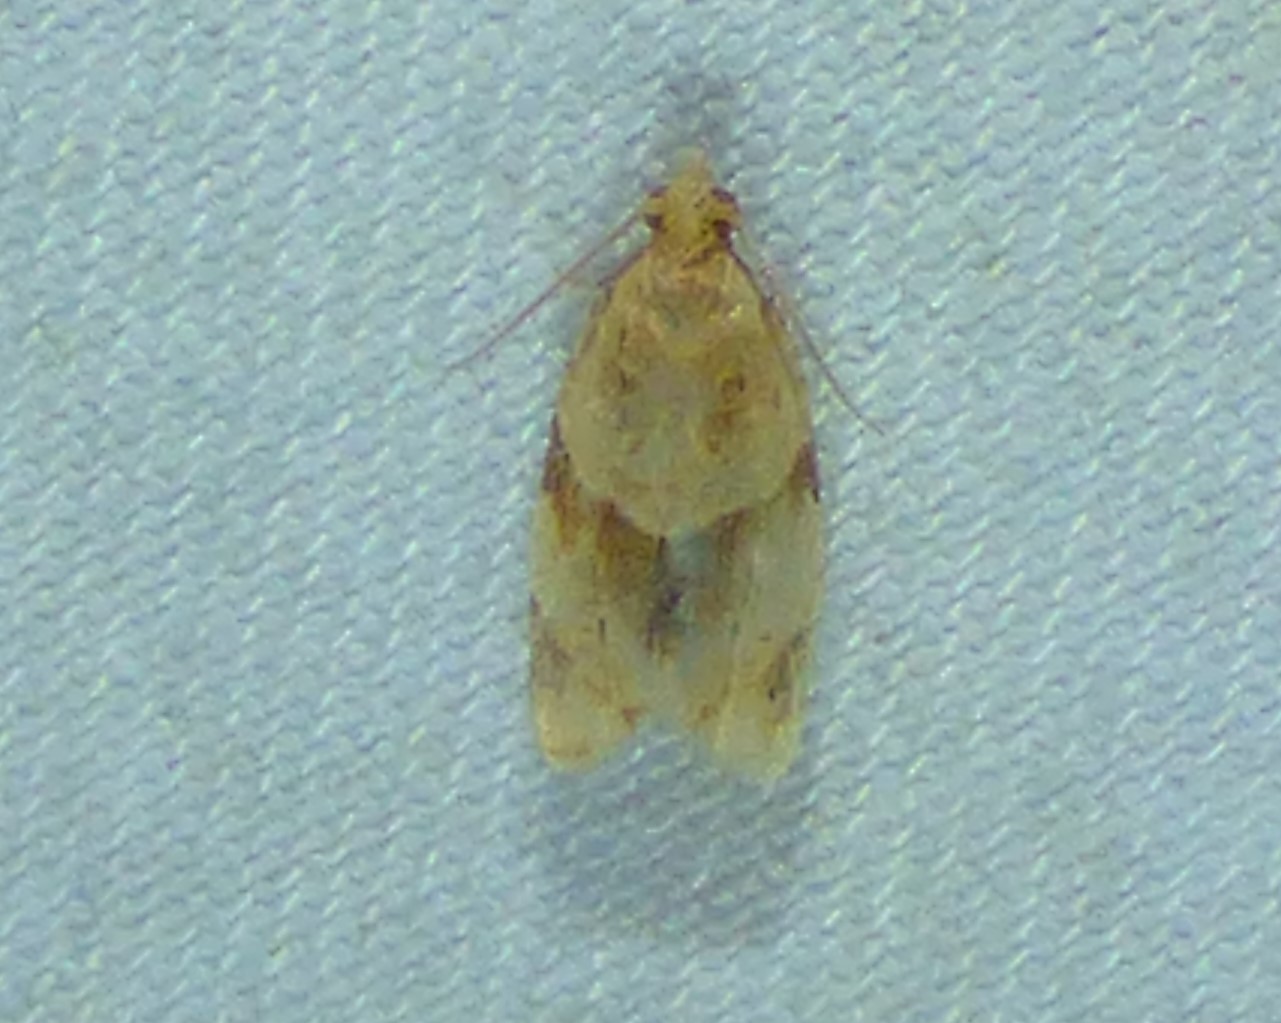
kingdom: Animalia
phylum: Arthropoda
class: Insecta
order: Lepidoptera
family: Tortricidae
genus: Clepsis
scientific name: Clepsis peritana
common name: Garden tortrix
